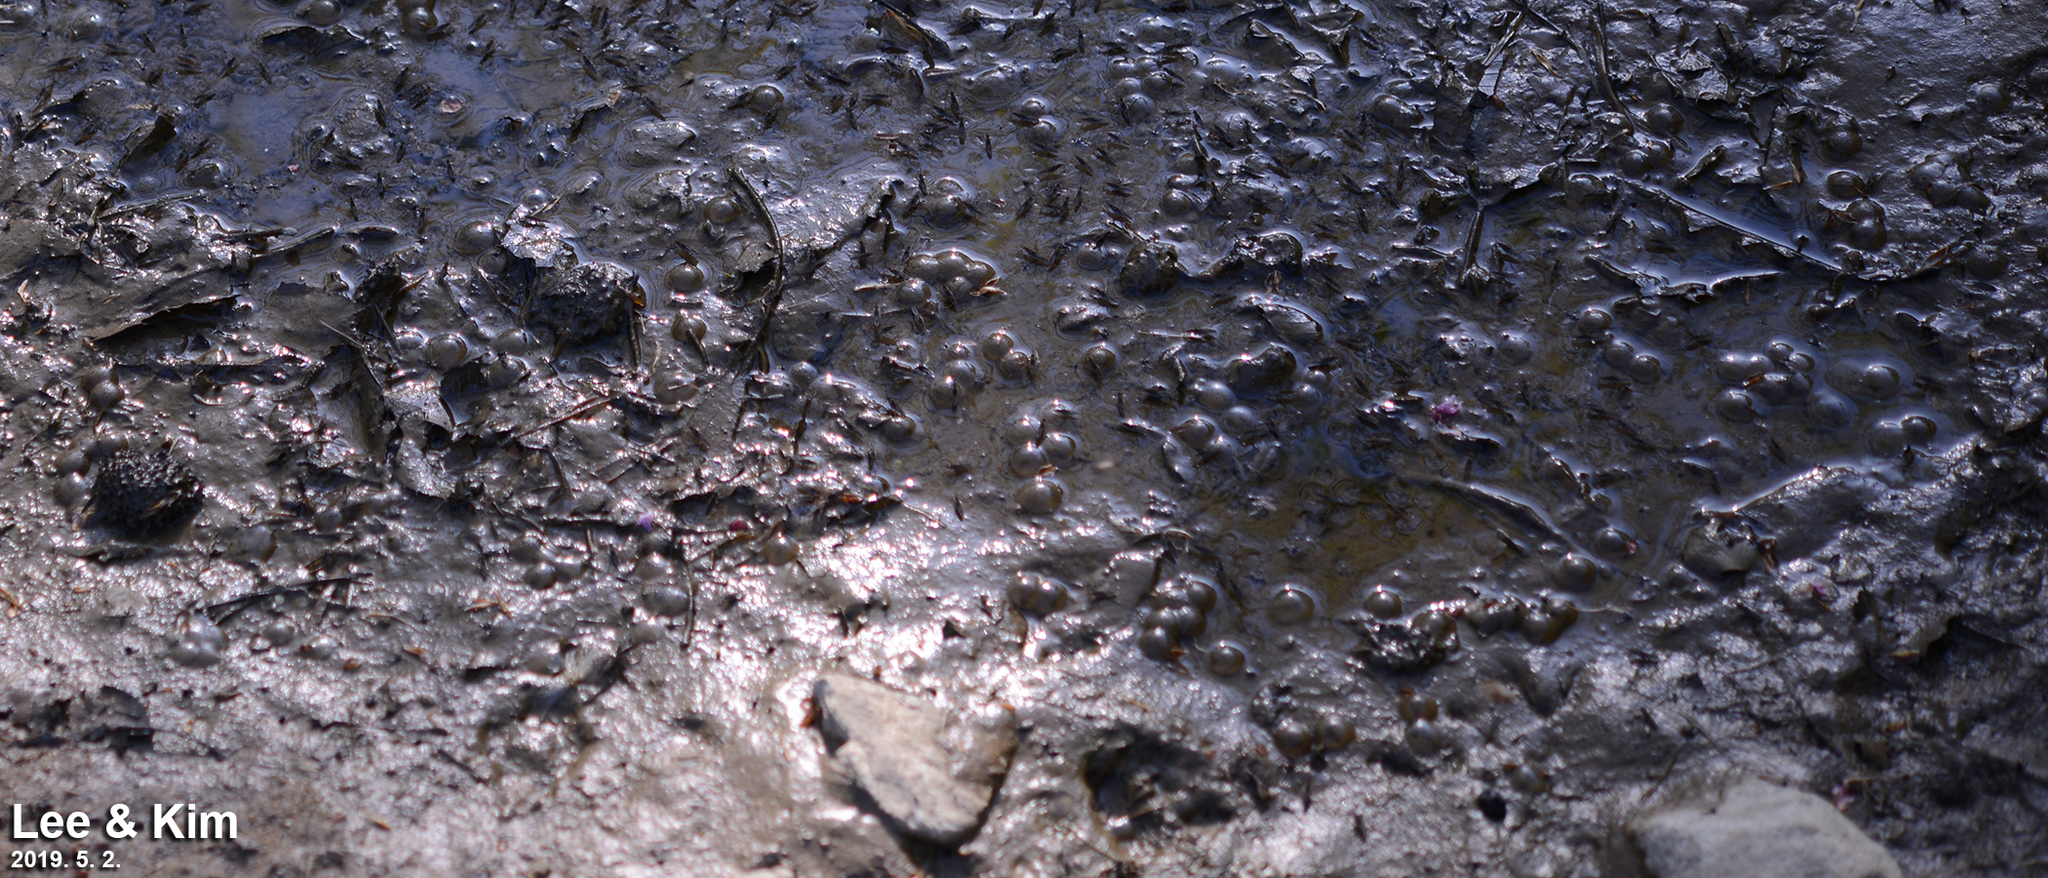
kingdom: Animalia
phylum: Chordata
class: Amphibia
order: Anura
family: Bombinatoridae
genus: Bombina
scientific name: Bombina orientalis
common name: Oriental firebelly toad
